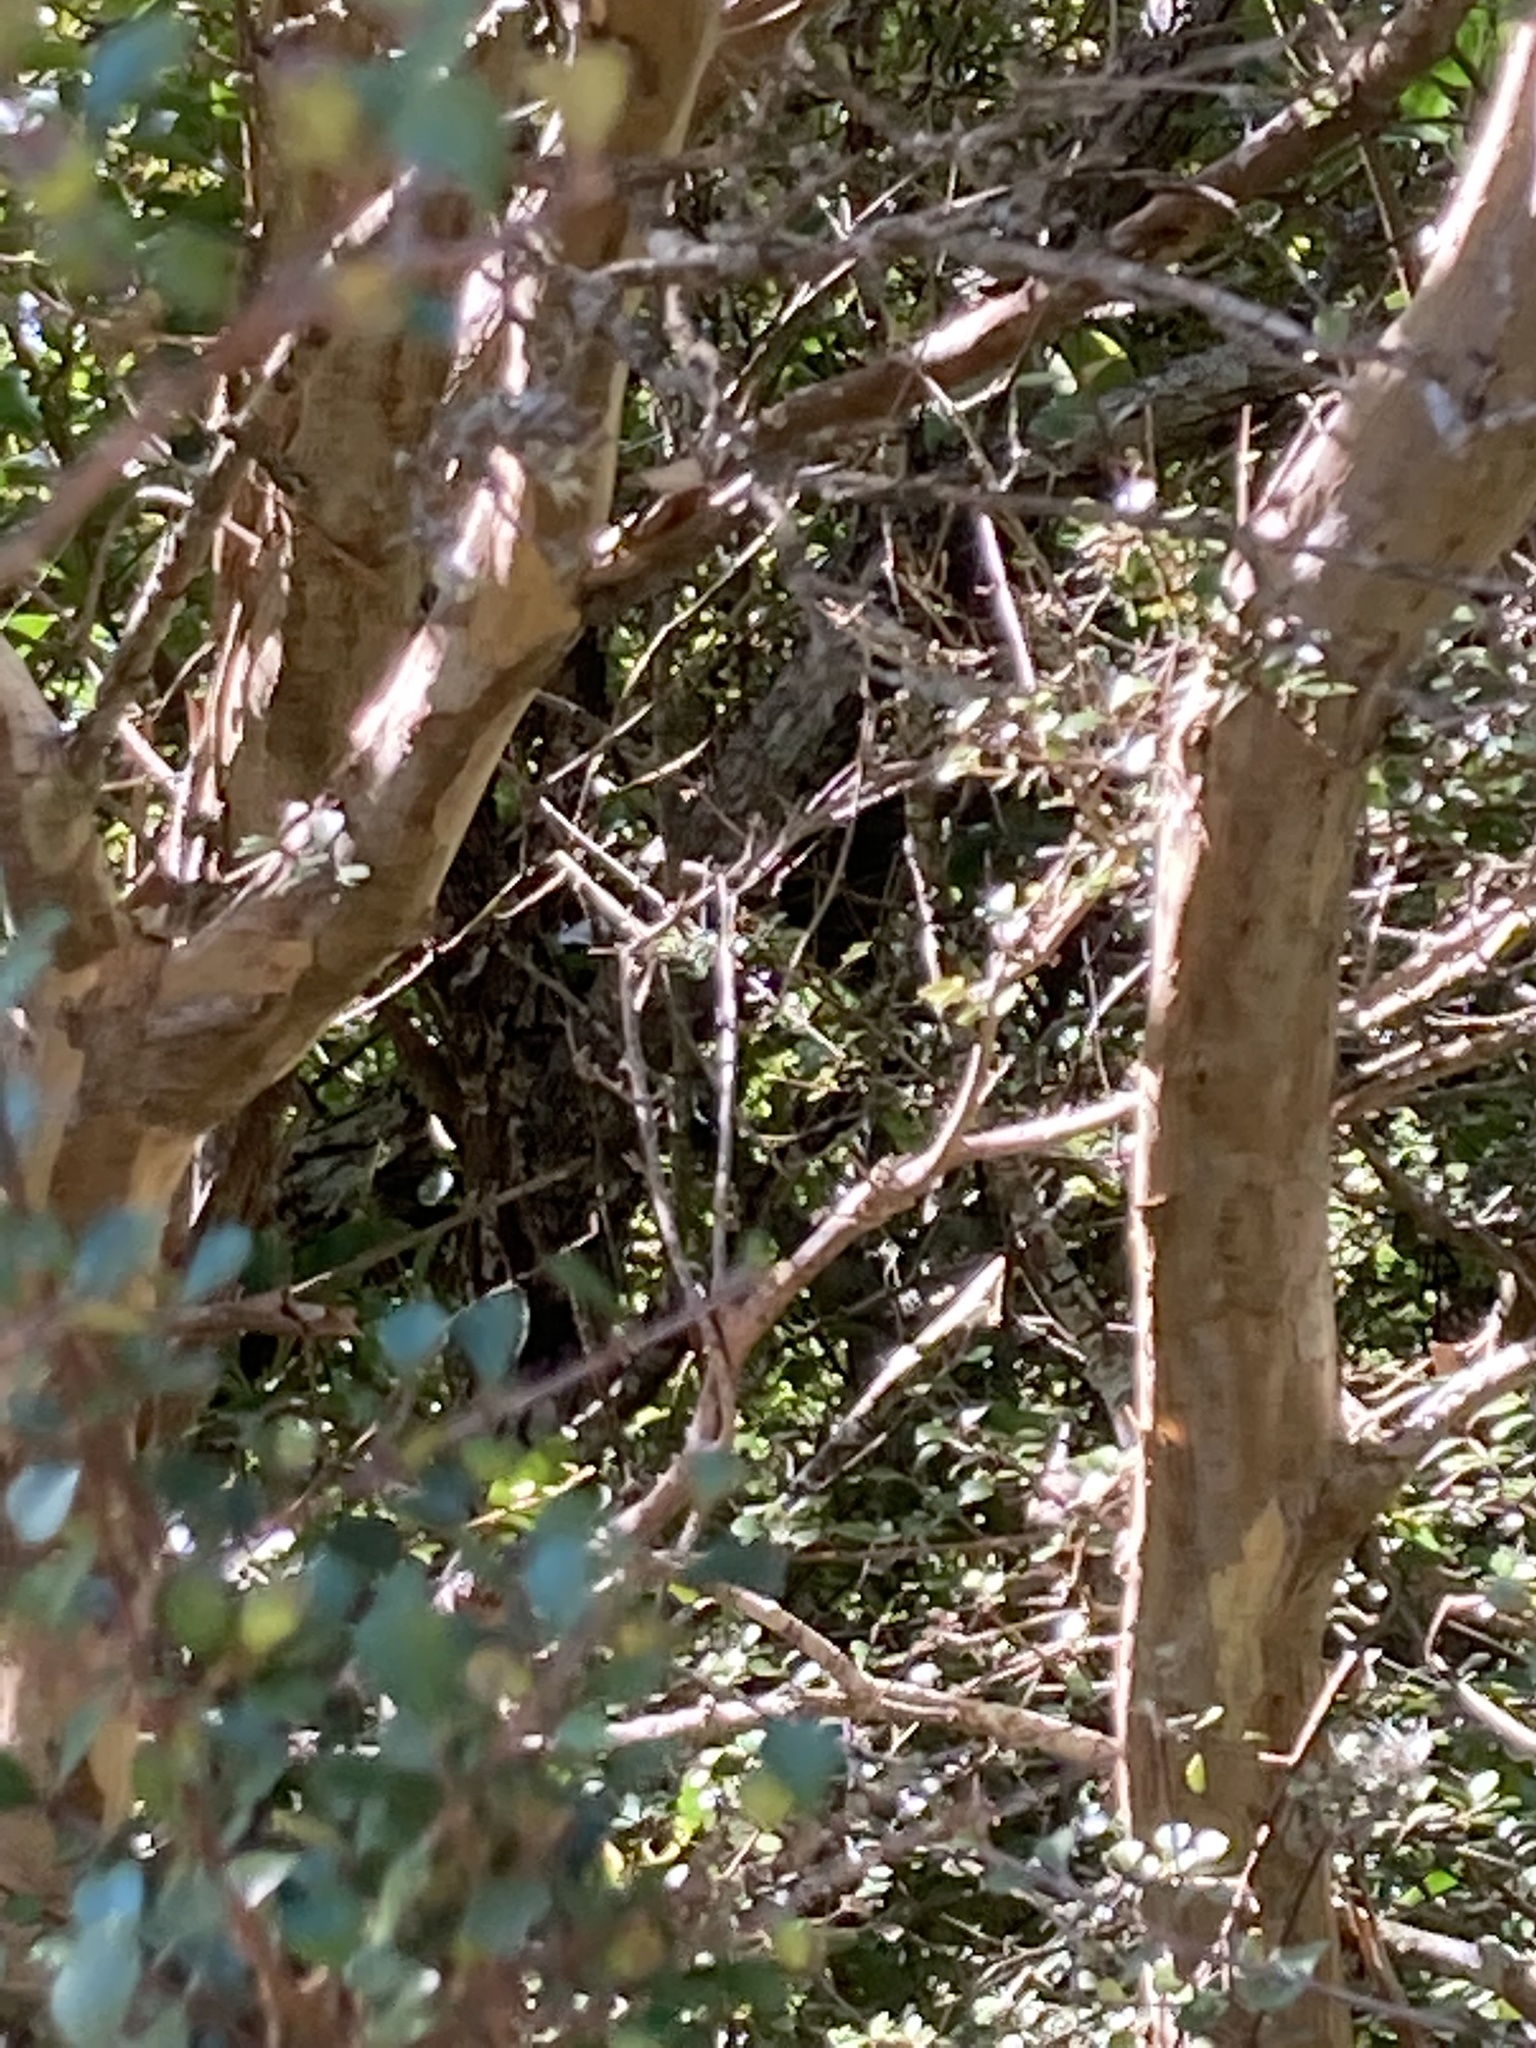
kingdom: Plantae
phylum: Tracheophyta
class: Magnoliopsida
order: Myrtales
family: Myrtaceae
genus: Lophomyrtus
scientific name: Lophomyrtus obcordata
